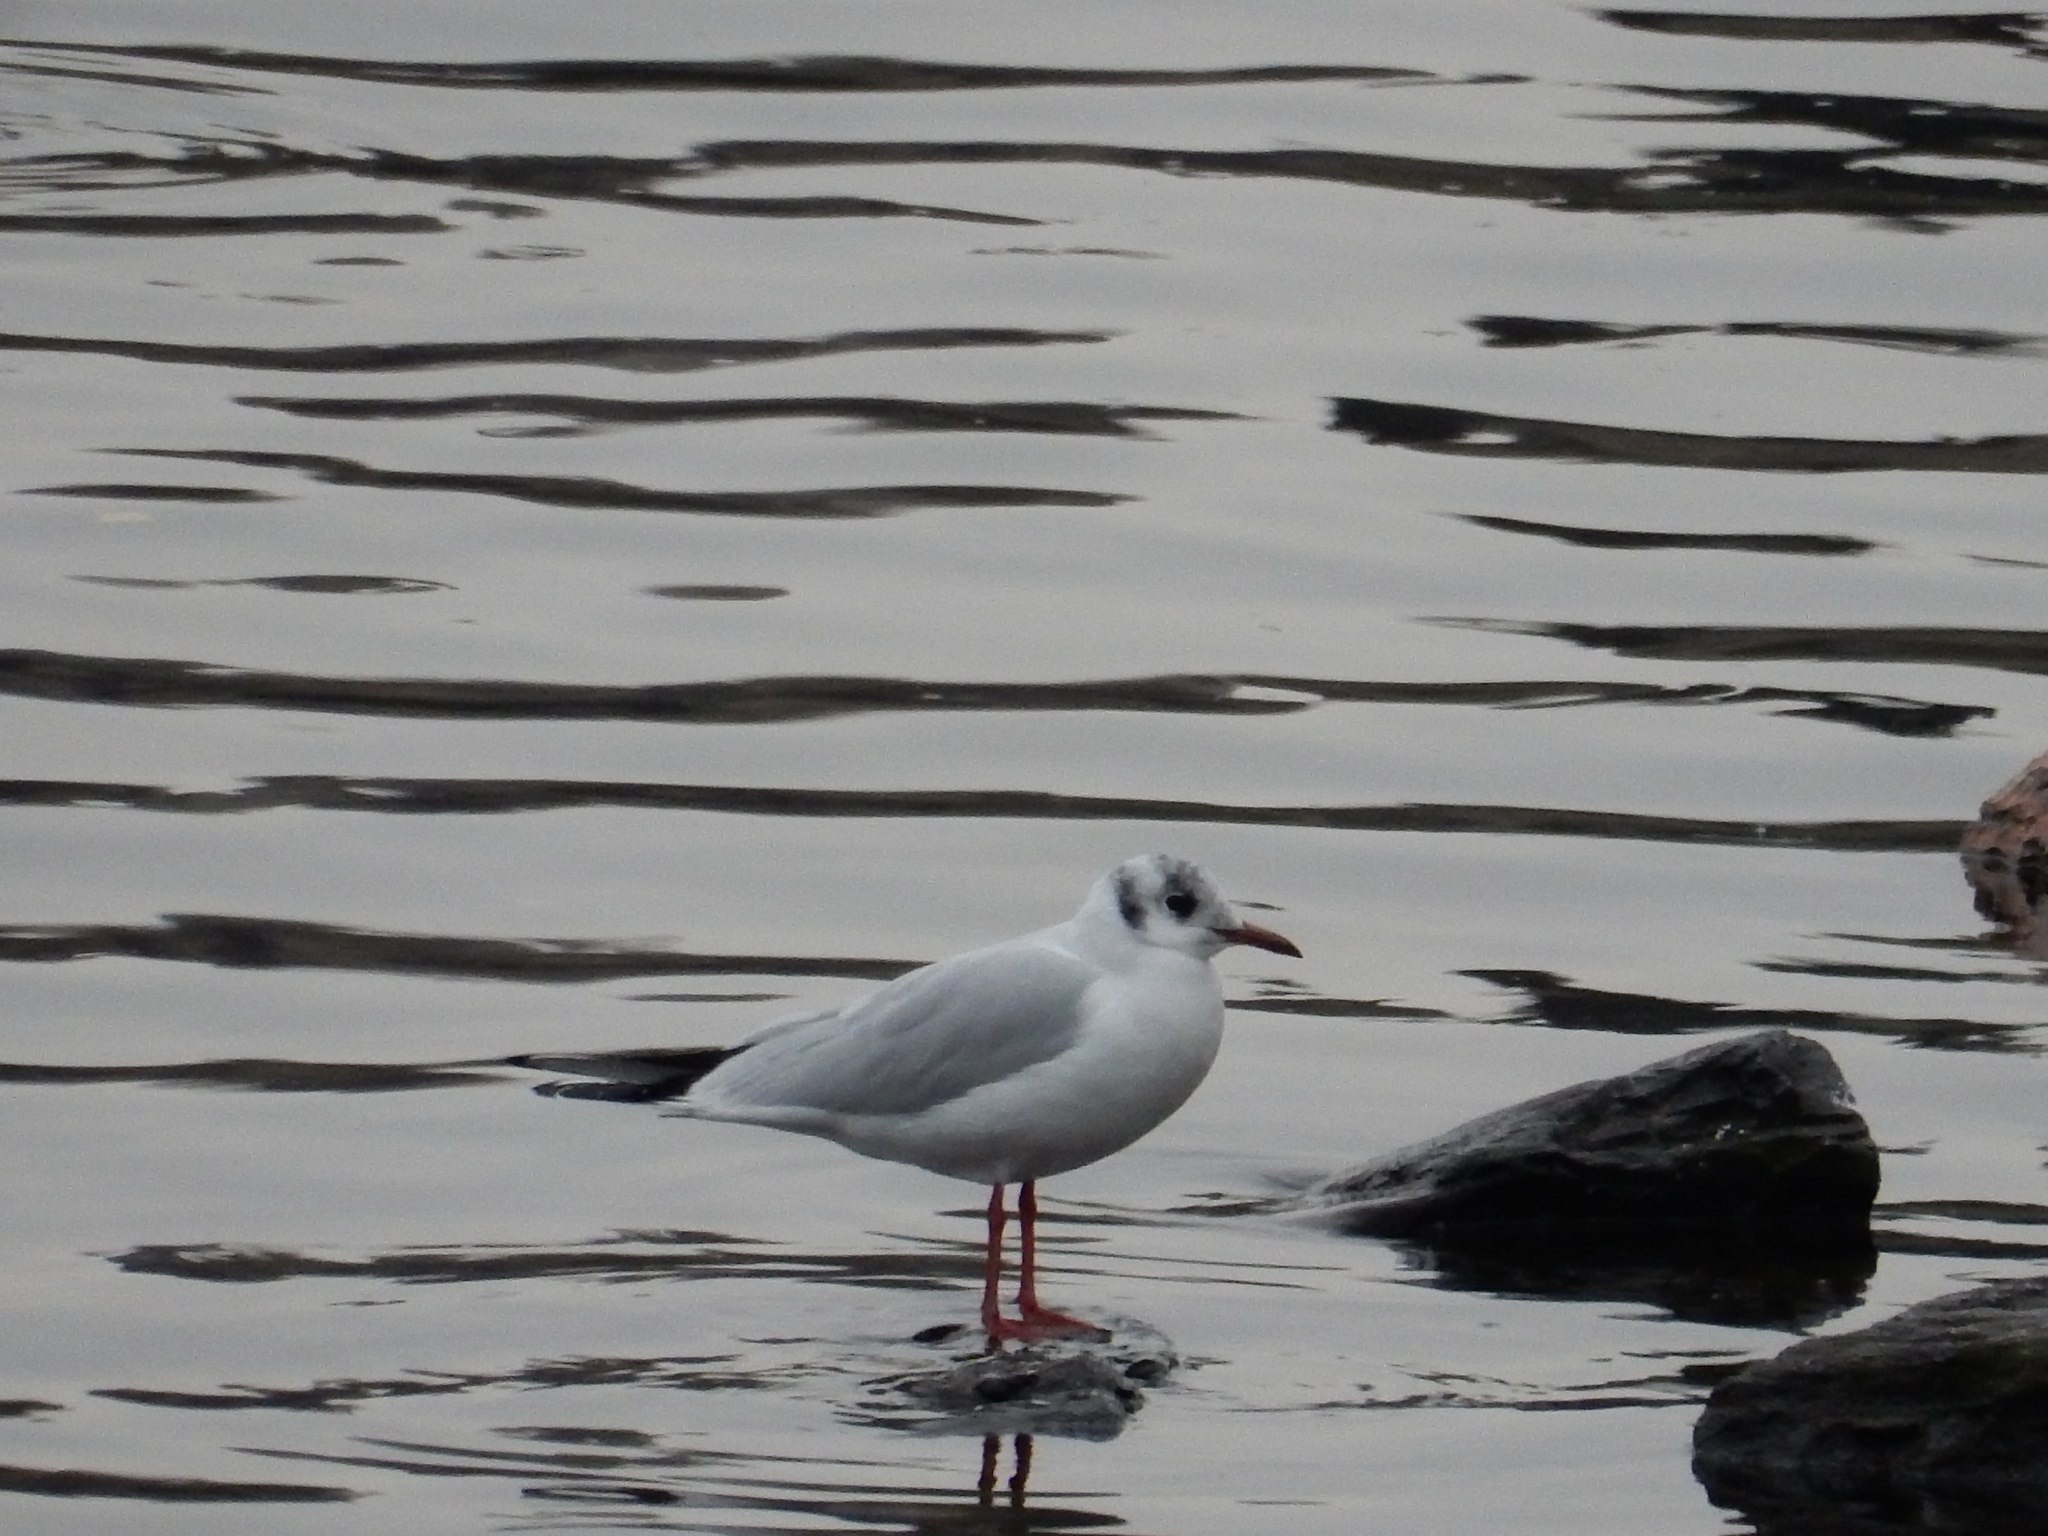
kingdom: Animalia
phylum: Chordata
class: Aves
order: Charadriiformes
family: Laridae
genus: Chroicocephalus
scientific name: Chroicocephalus ridibundus
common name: Black-headed gull
